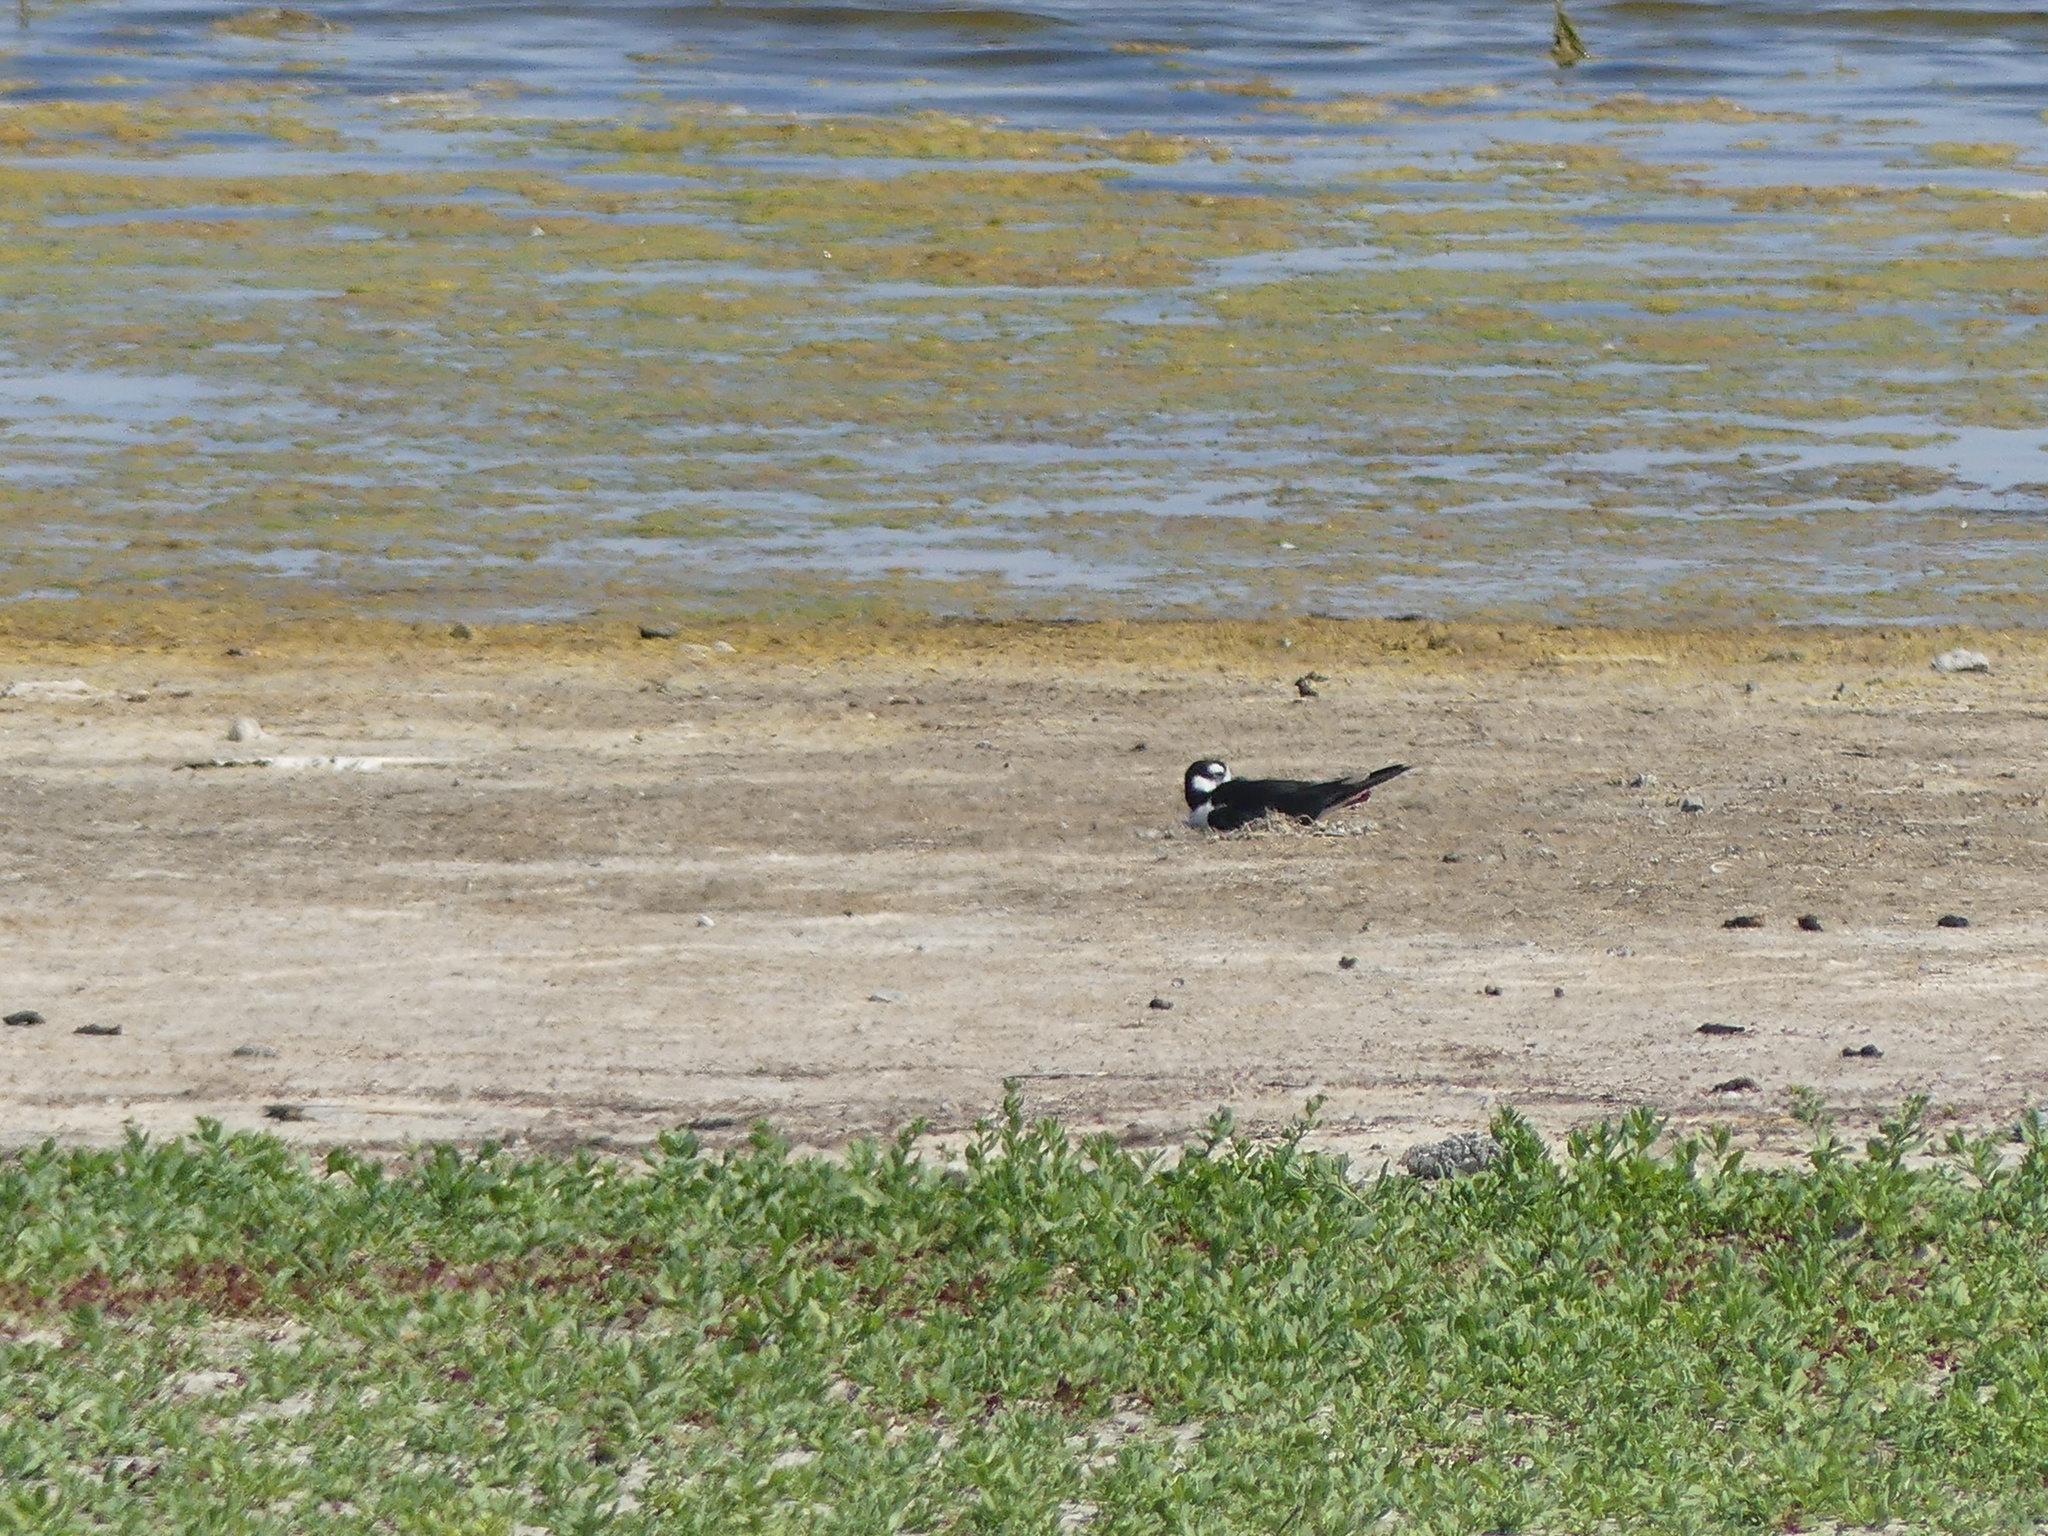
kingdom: Animalia
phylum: Chordata
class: Aves
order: Charadriiformes
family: Recurvirostridae
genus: Himantopus
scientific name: Himantopus mexicanus
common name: Black-necked stilt
